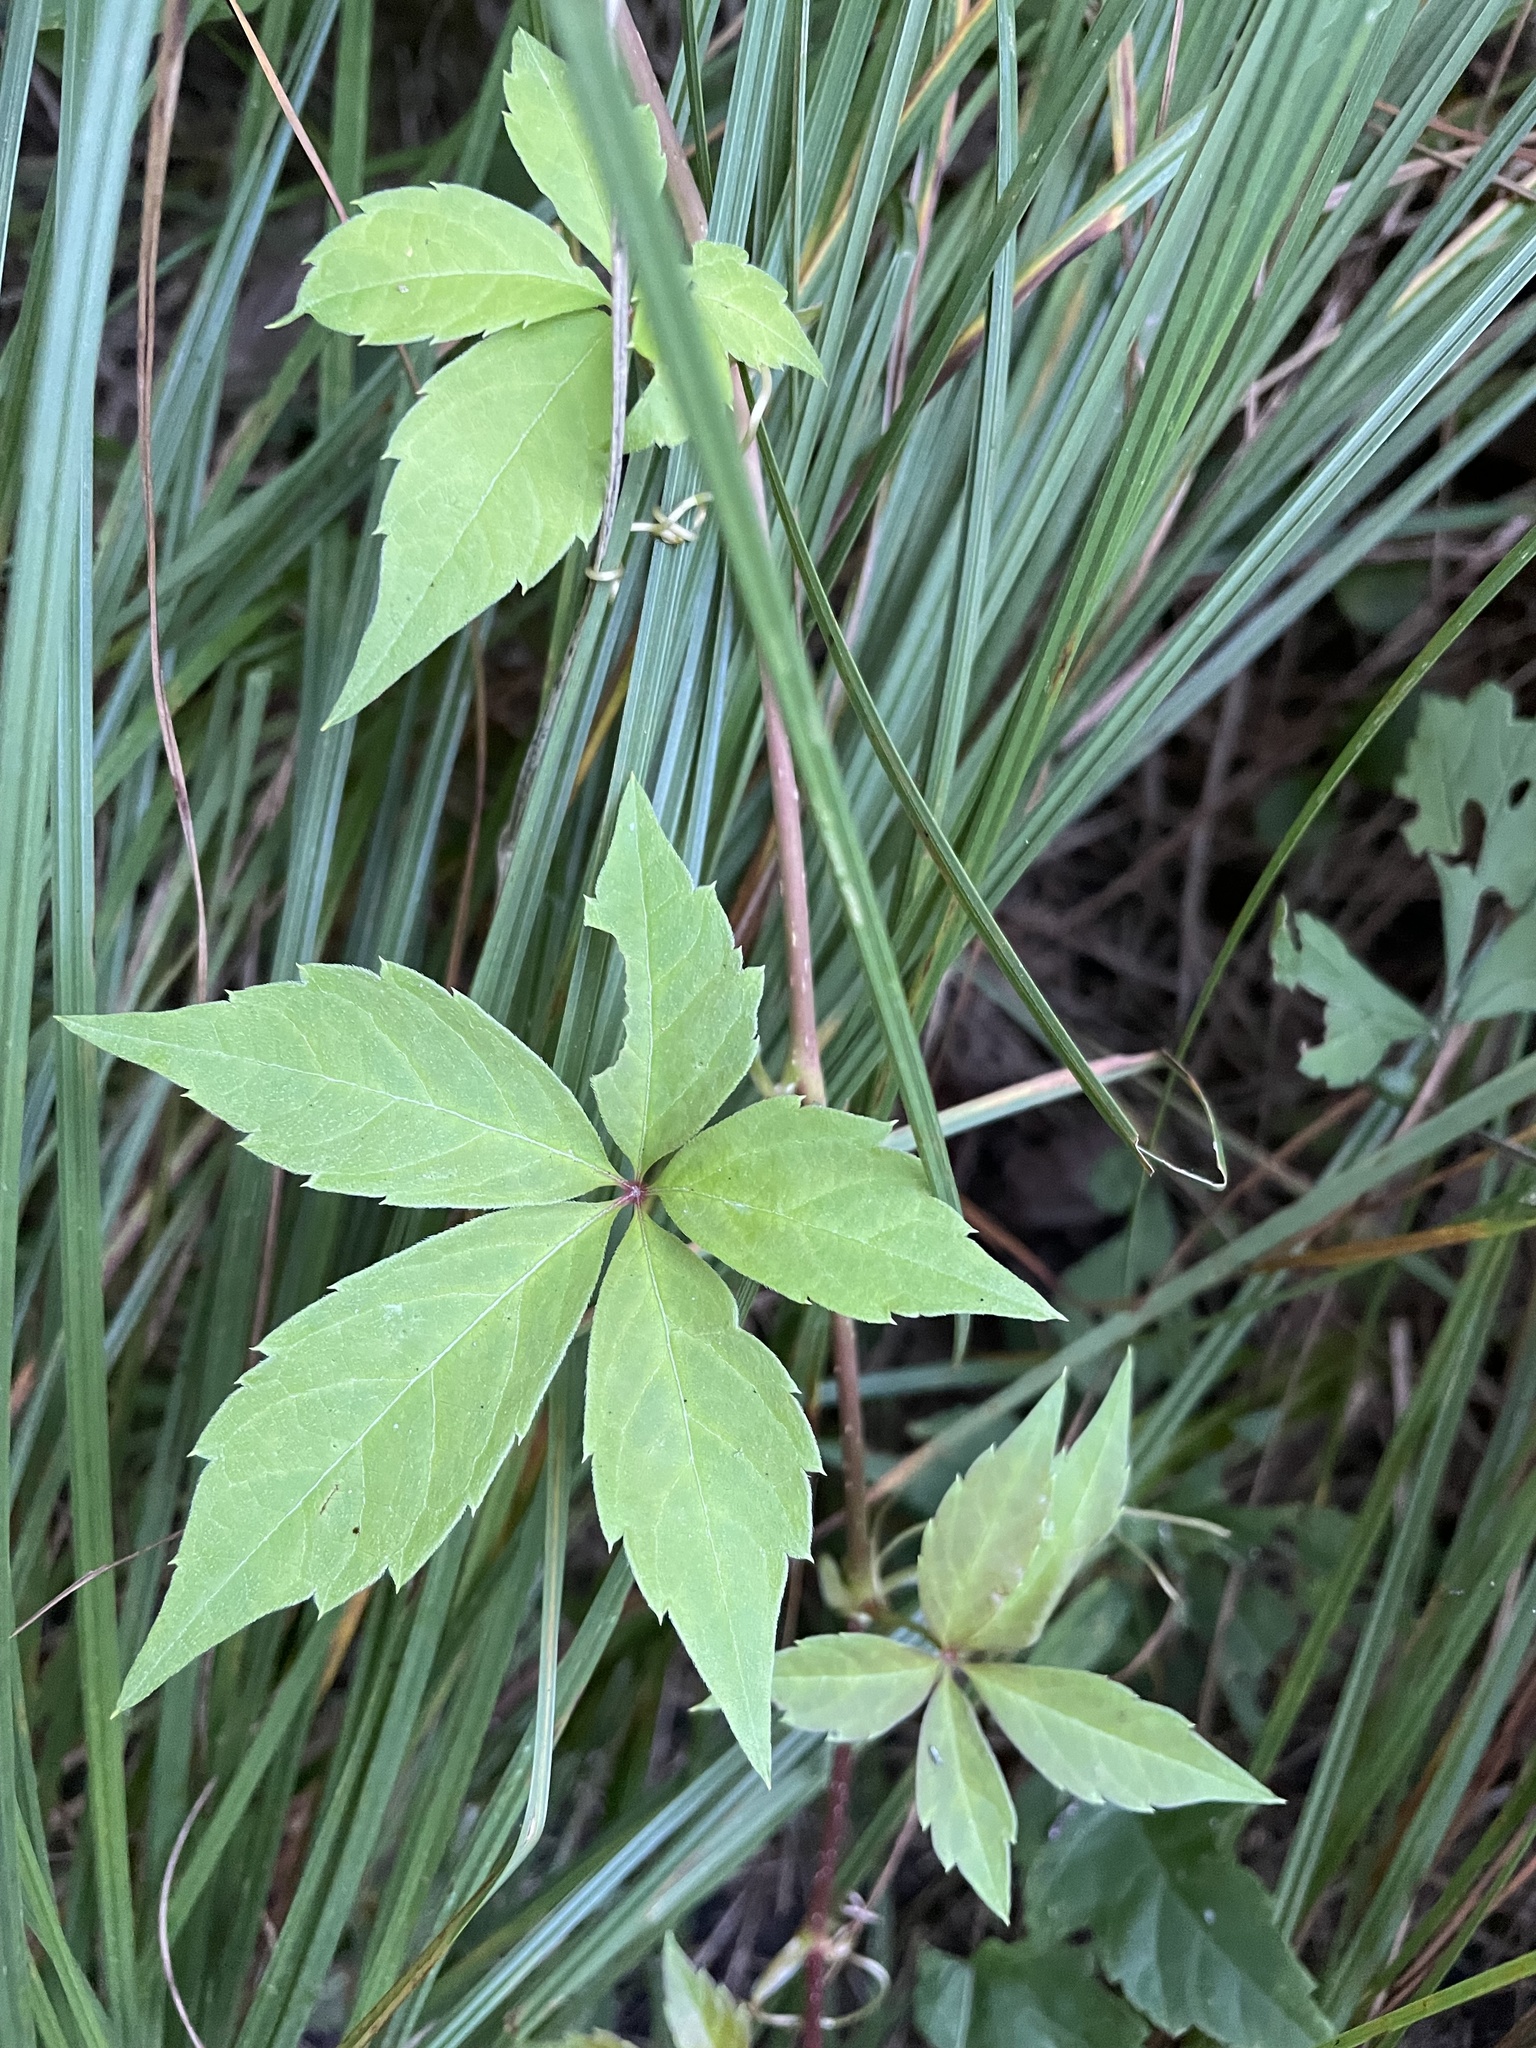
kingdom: Plantae
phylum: Tracheophyta
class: Magnoliopsida
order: Vitales
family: Vitaceae
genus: Parthenocissus
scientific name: Parthenocissus quinquefolia
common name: Virginia-creeper
